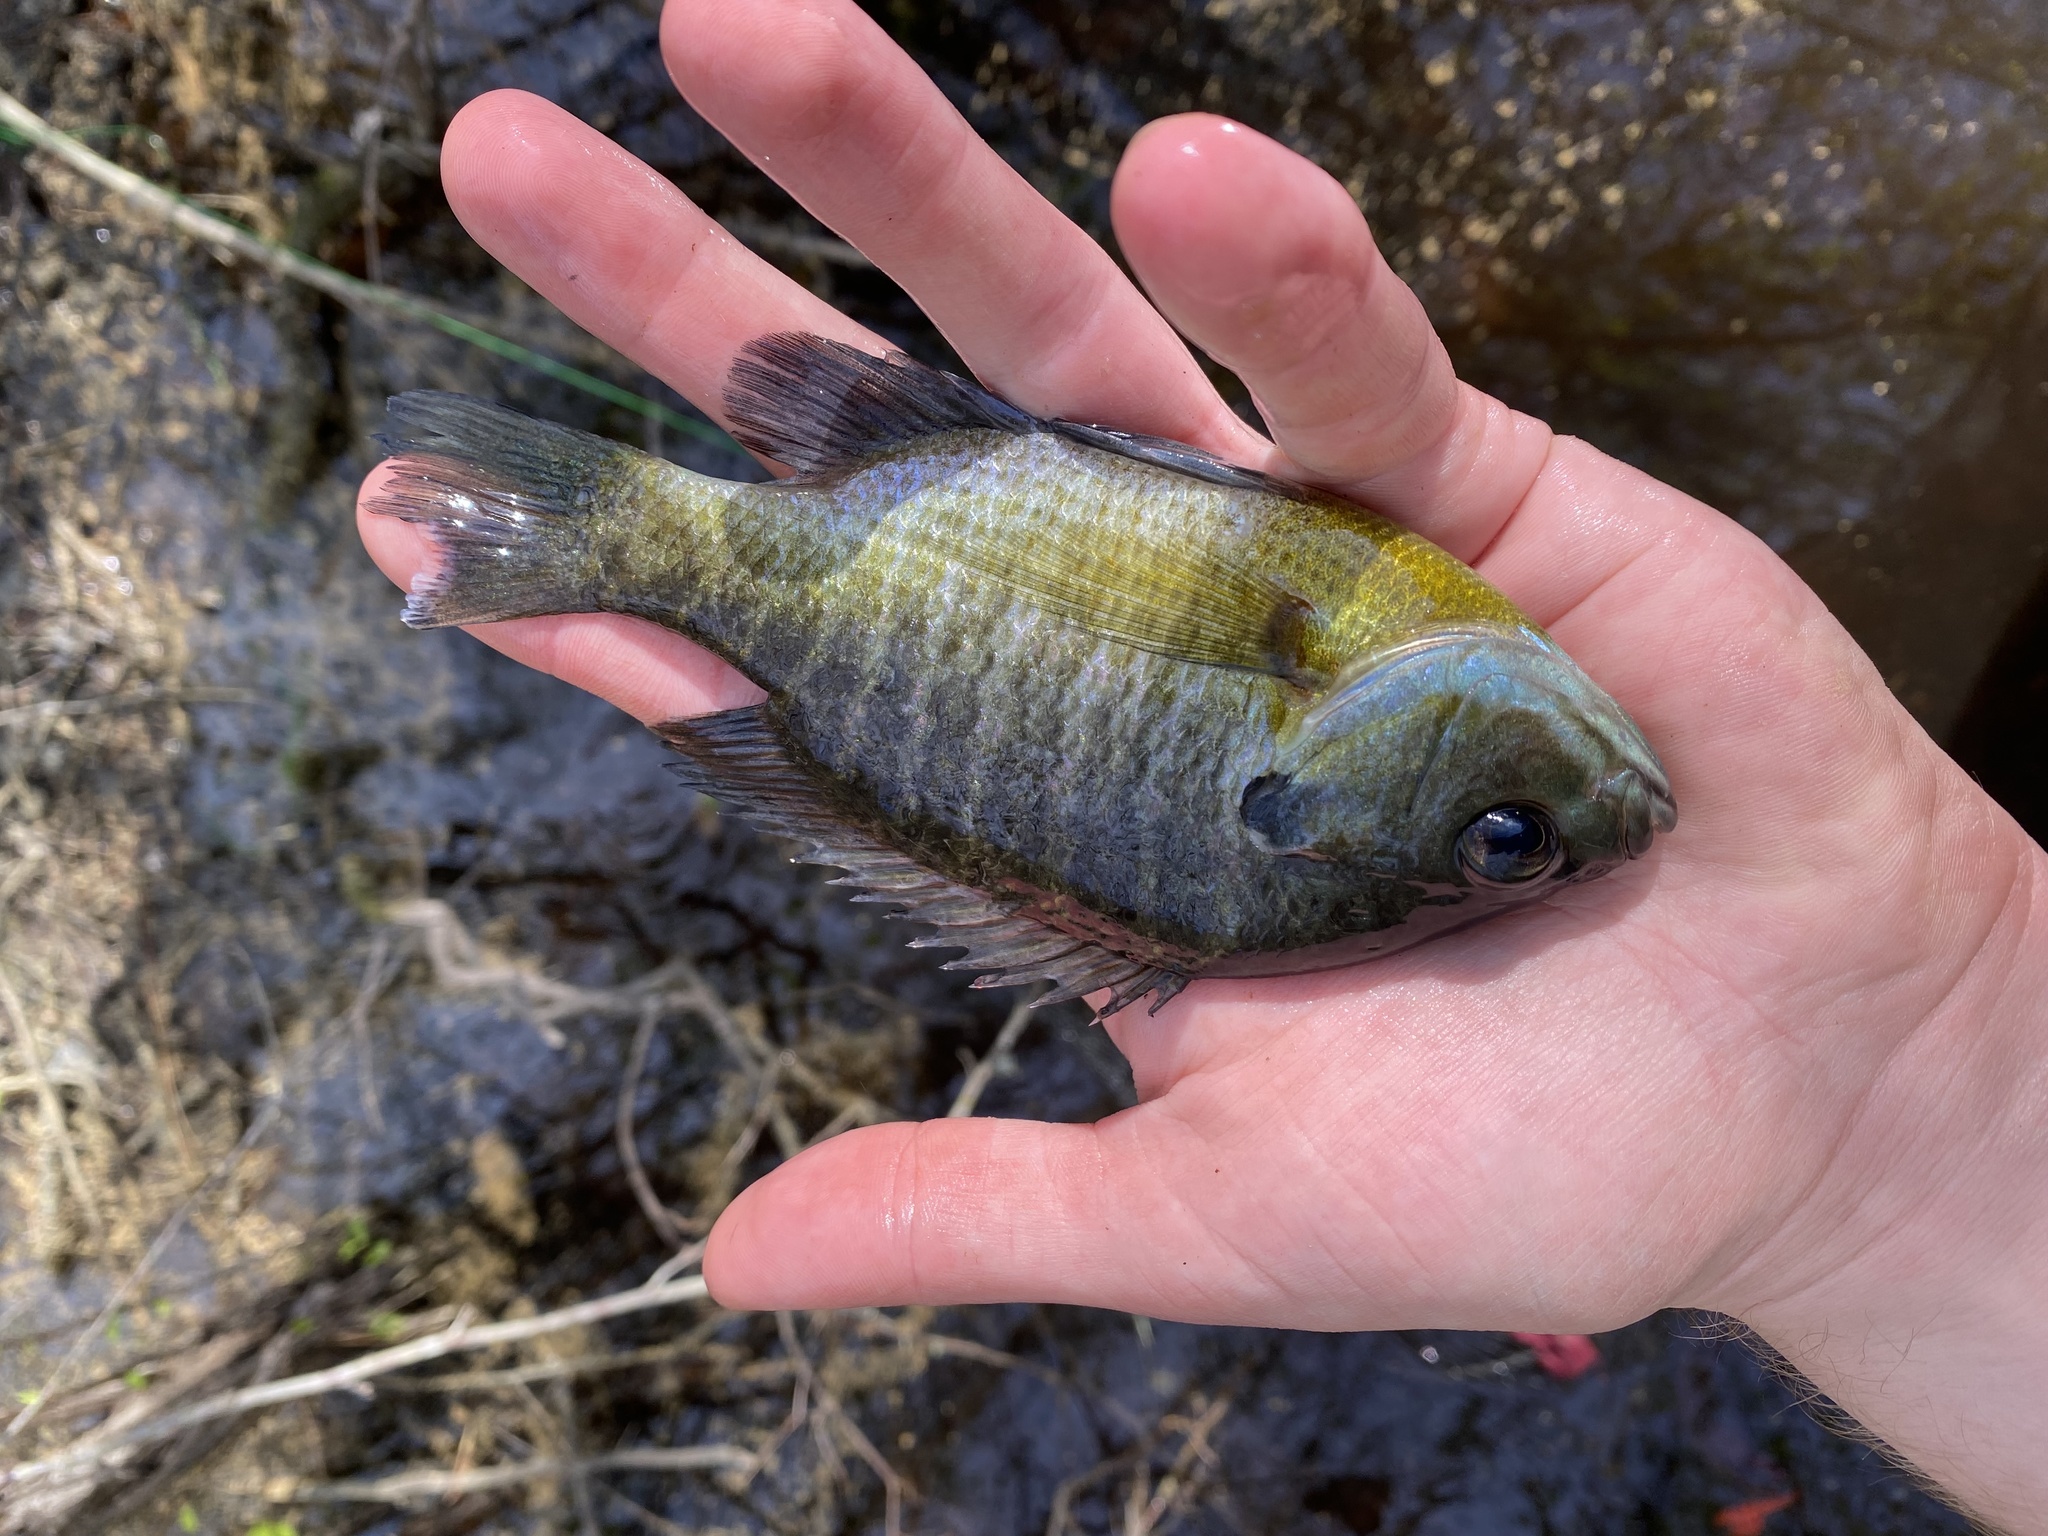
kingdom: Animalia
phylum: Chordata
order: Perciformes
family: Centrarchidae
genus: Lepomis
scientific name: Lepomis macrochirus
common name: Bluegill
